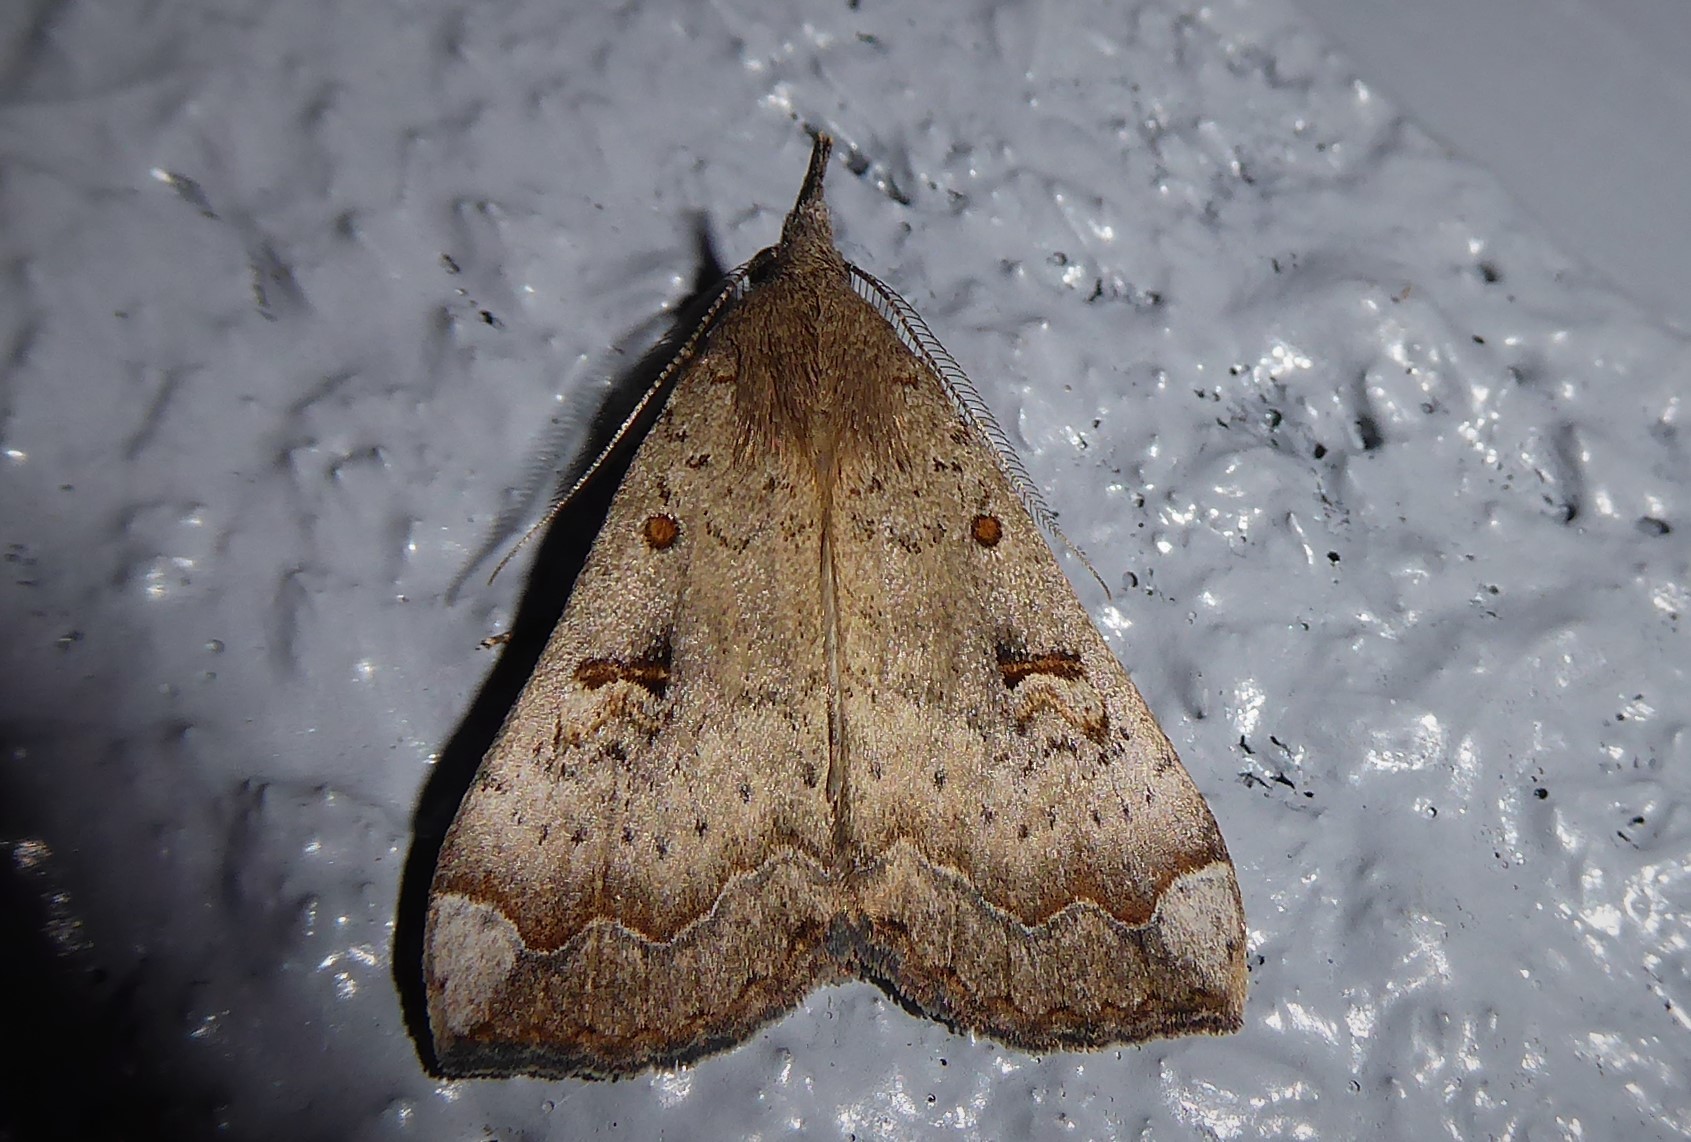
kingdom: Animalia
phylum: Arthropoda
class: Insecta
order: Lepidoptera
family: Erebidae
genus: Rhapsa
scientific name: Rhapsa scotosialis
